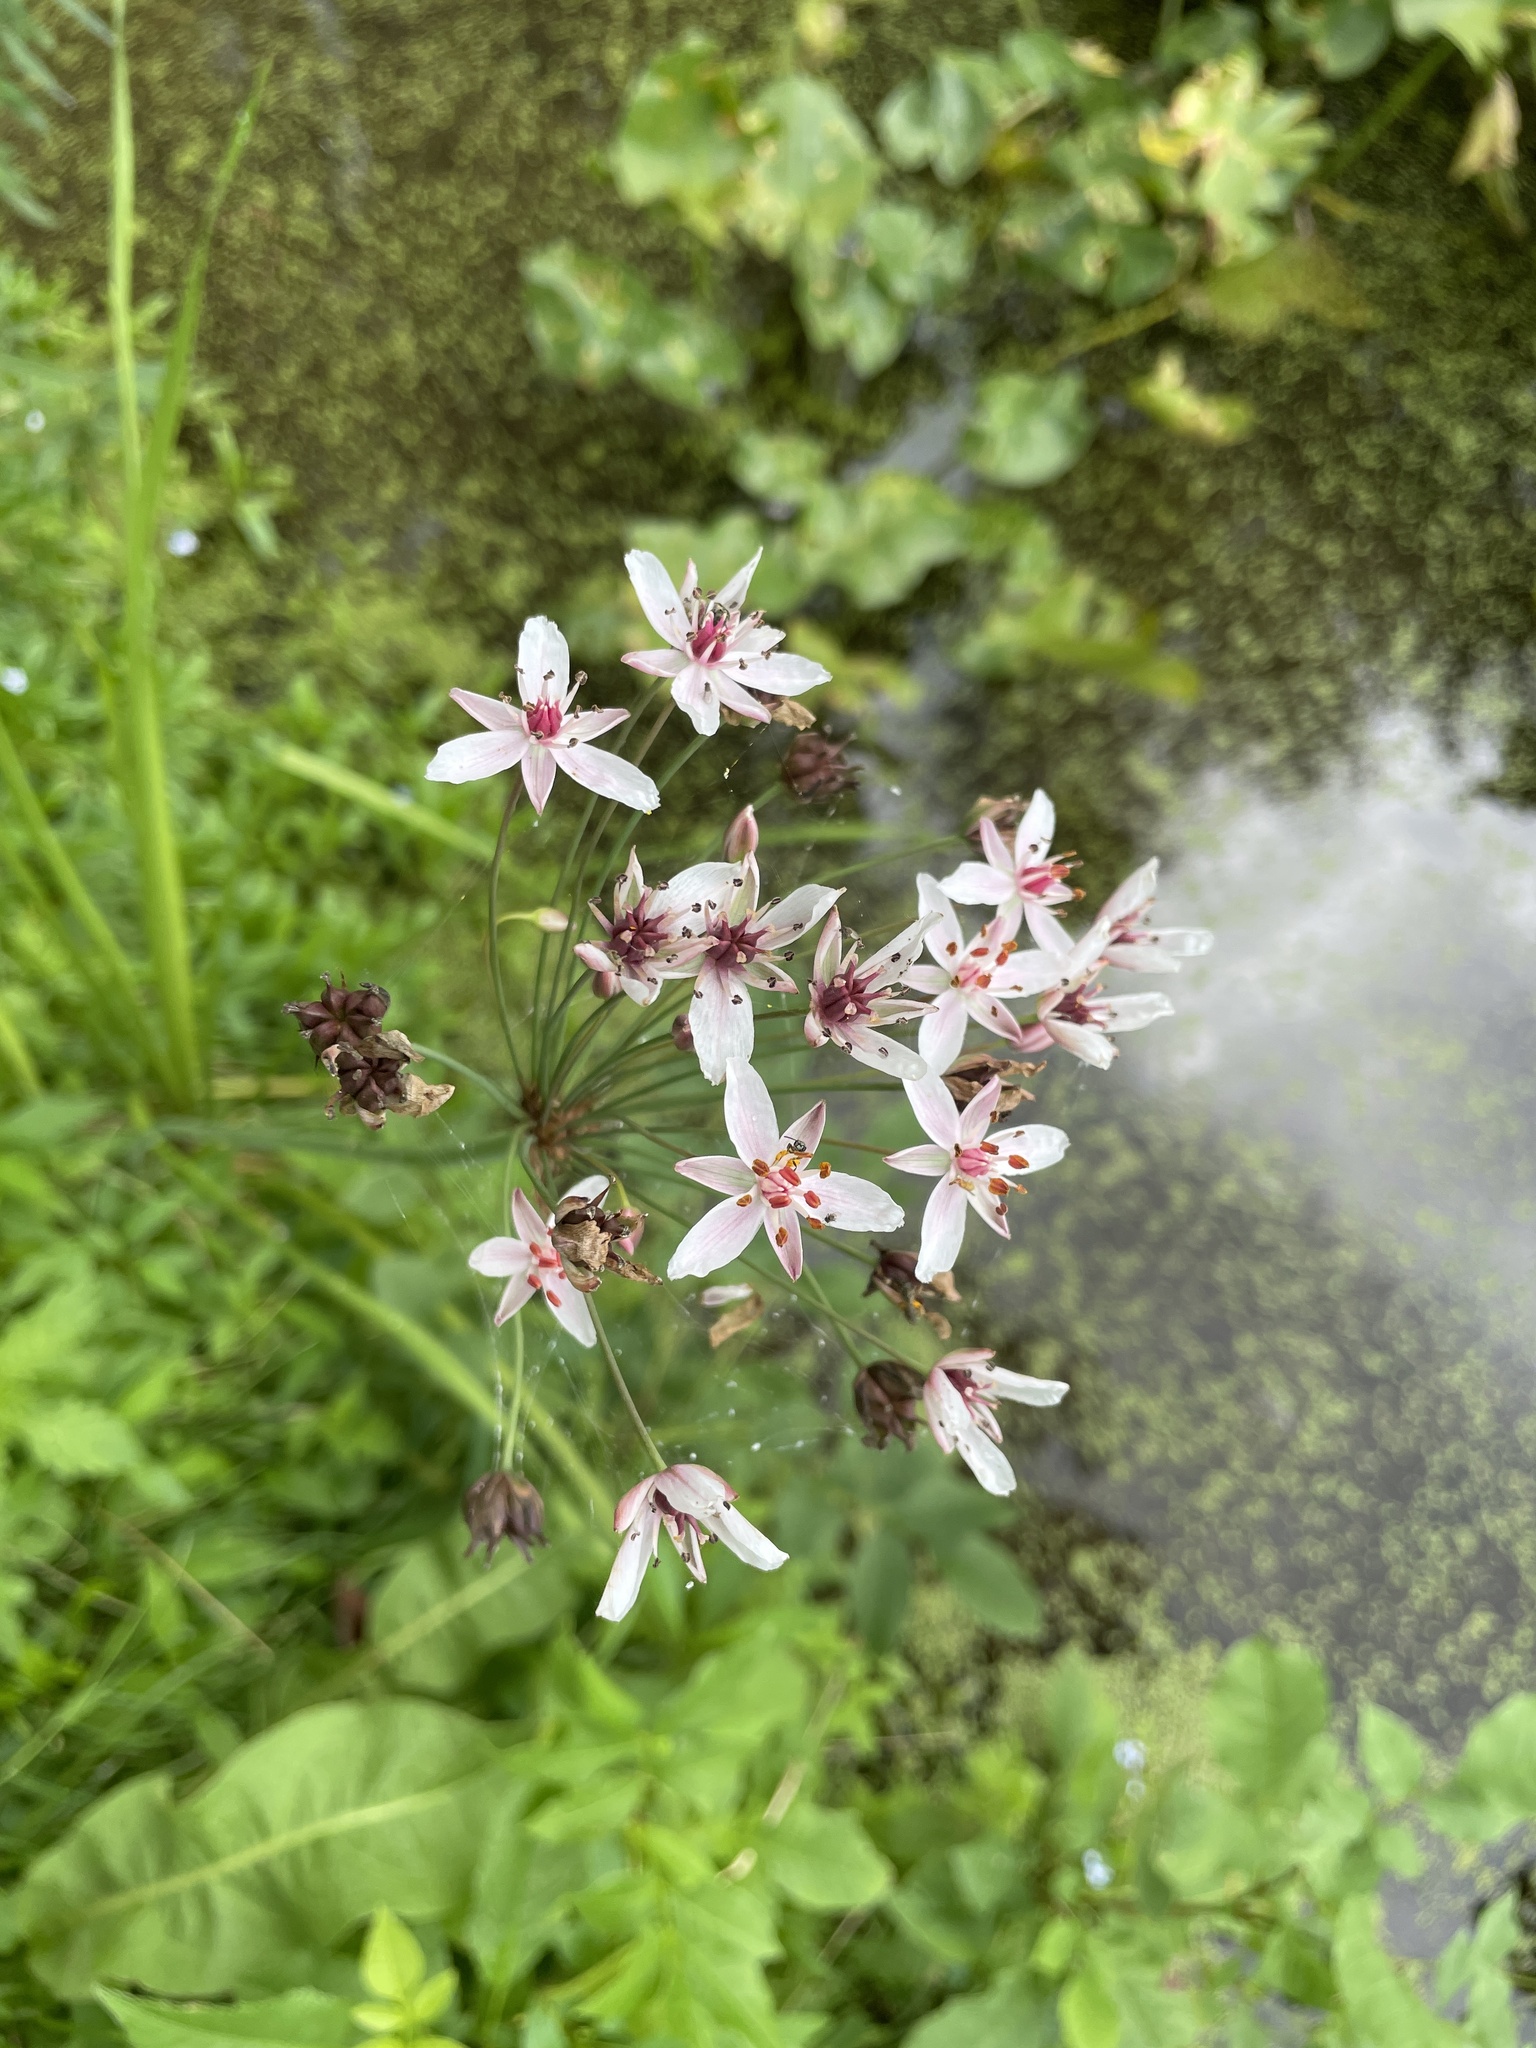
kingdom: Plantae
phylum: Tracheophyta
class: Liliopsida
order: Alismatales
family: Butomaceae
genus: Butomus
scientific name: Butomus umbellatus
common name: Flowering-rush
